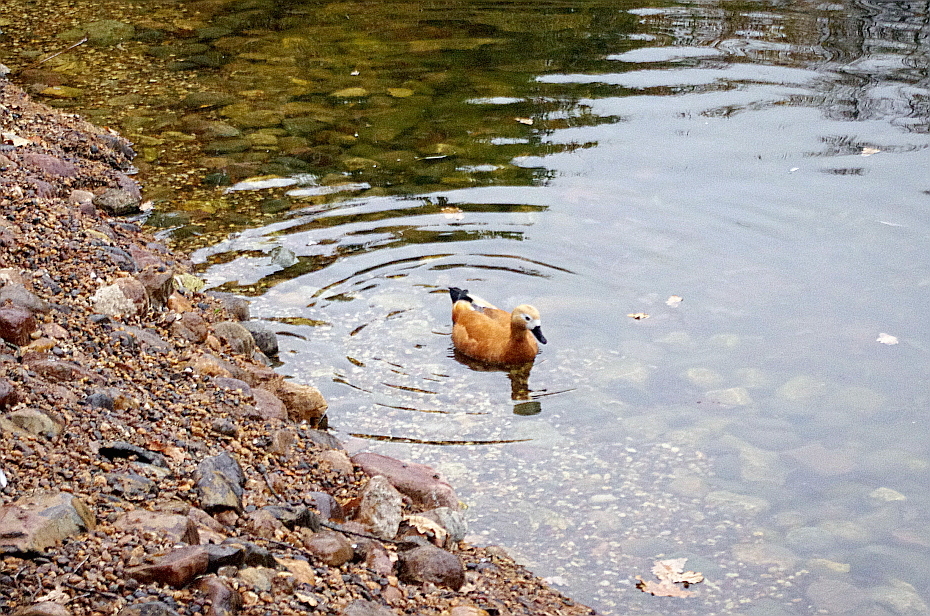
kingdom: Animalia
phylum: Chordata
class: Aves
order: Anseriformes
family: Anatidae
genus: Tadorna
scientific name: Tadorna ferruginea
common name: Ruddy shelduck
